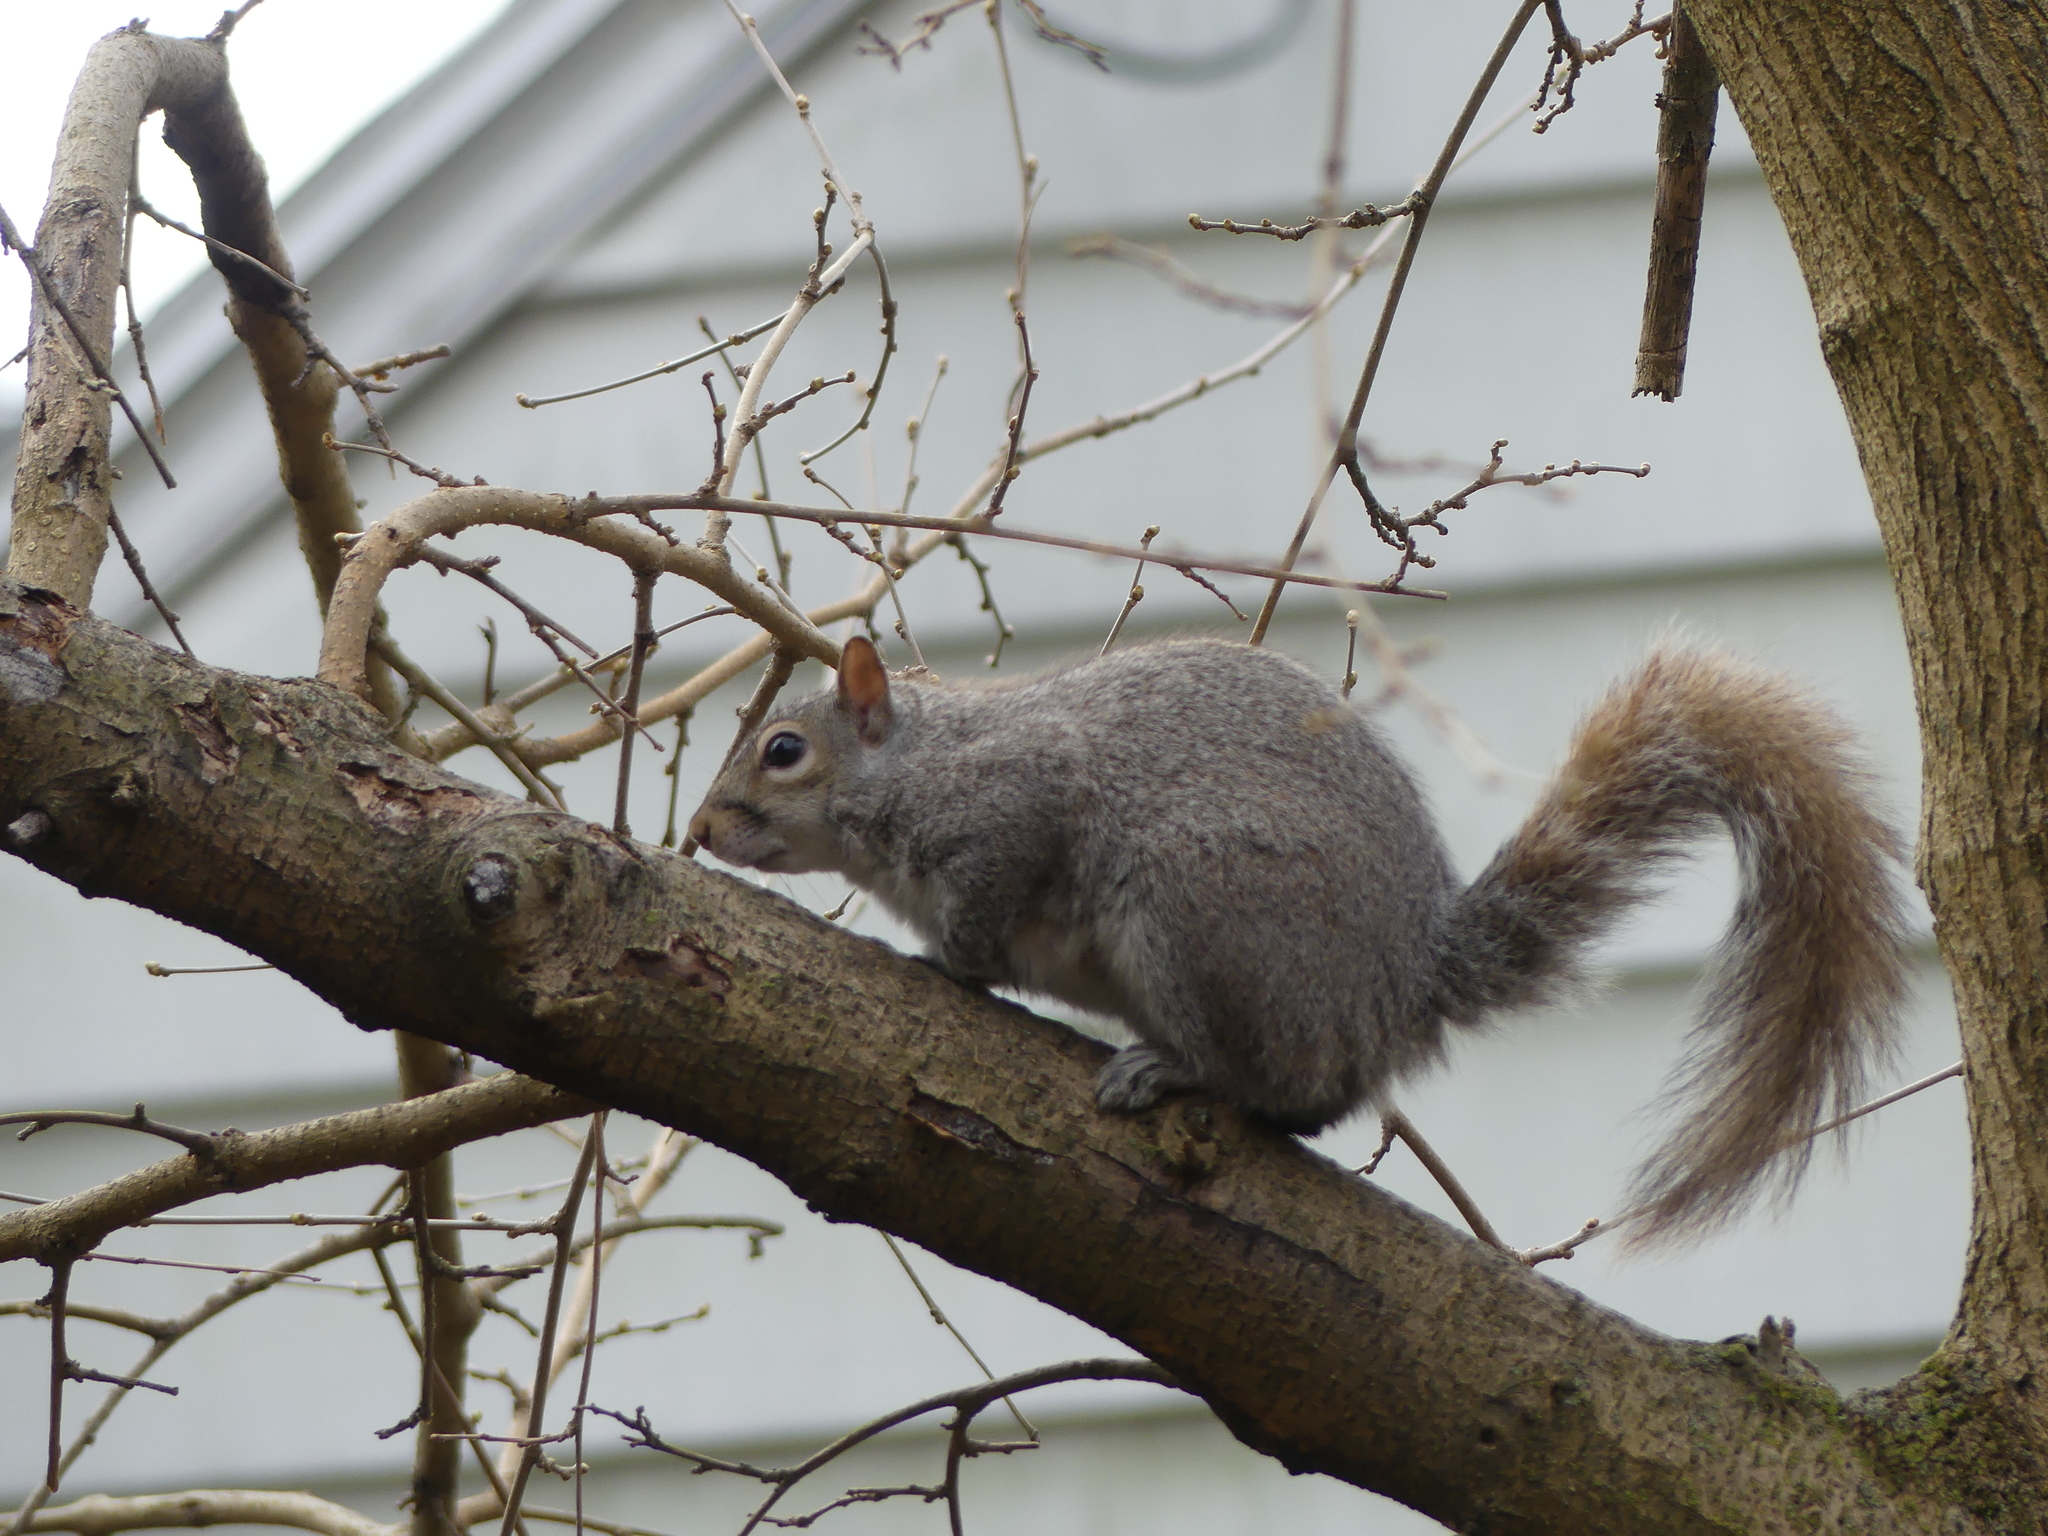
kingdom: Animalia
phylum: Chordata
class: Mammalia
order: Rodentia
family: Sciuridae
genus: Sciurus
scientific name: Sciurus carolinensis
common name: Eastern gray squirrel
